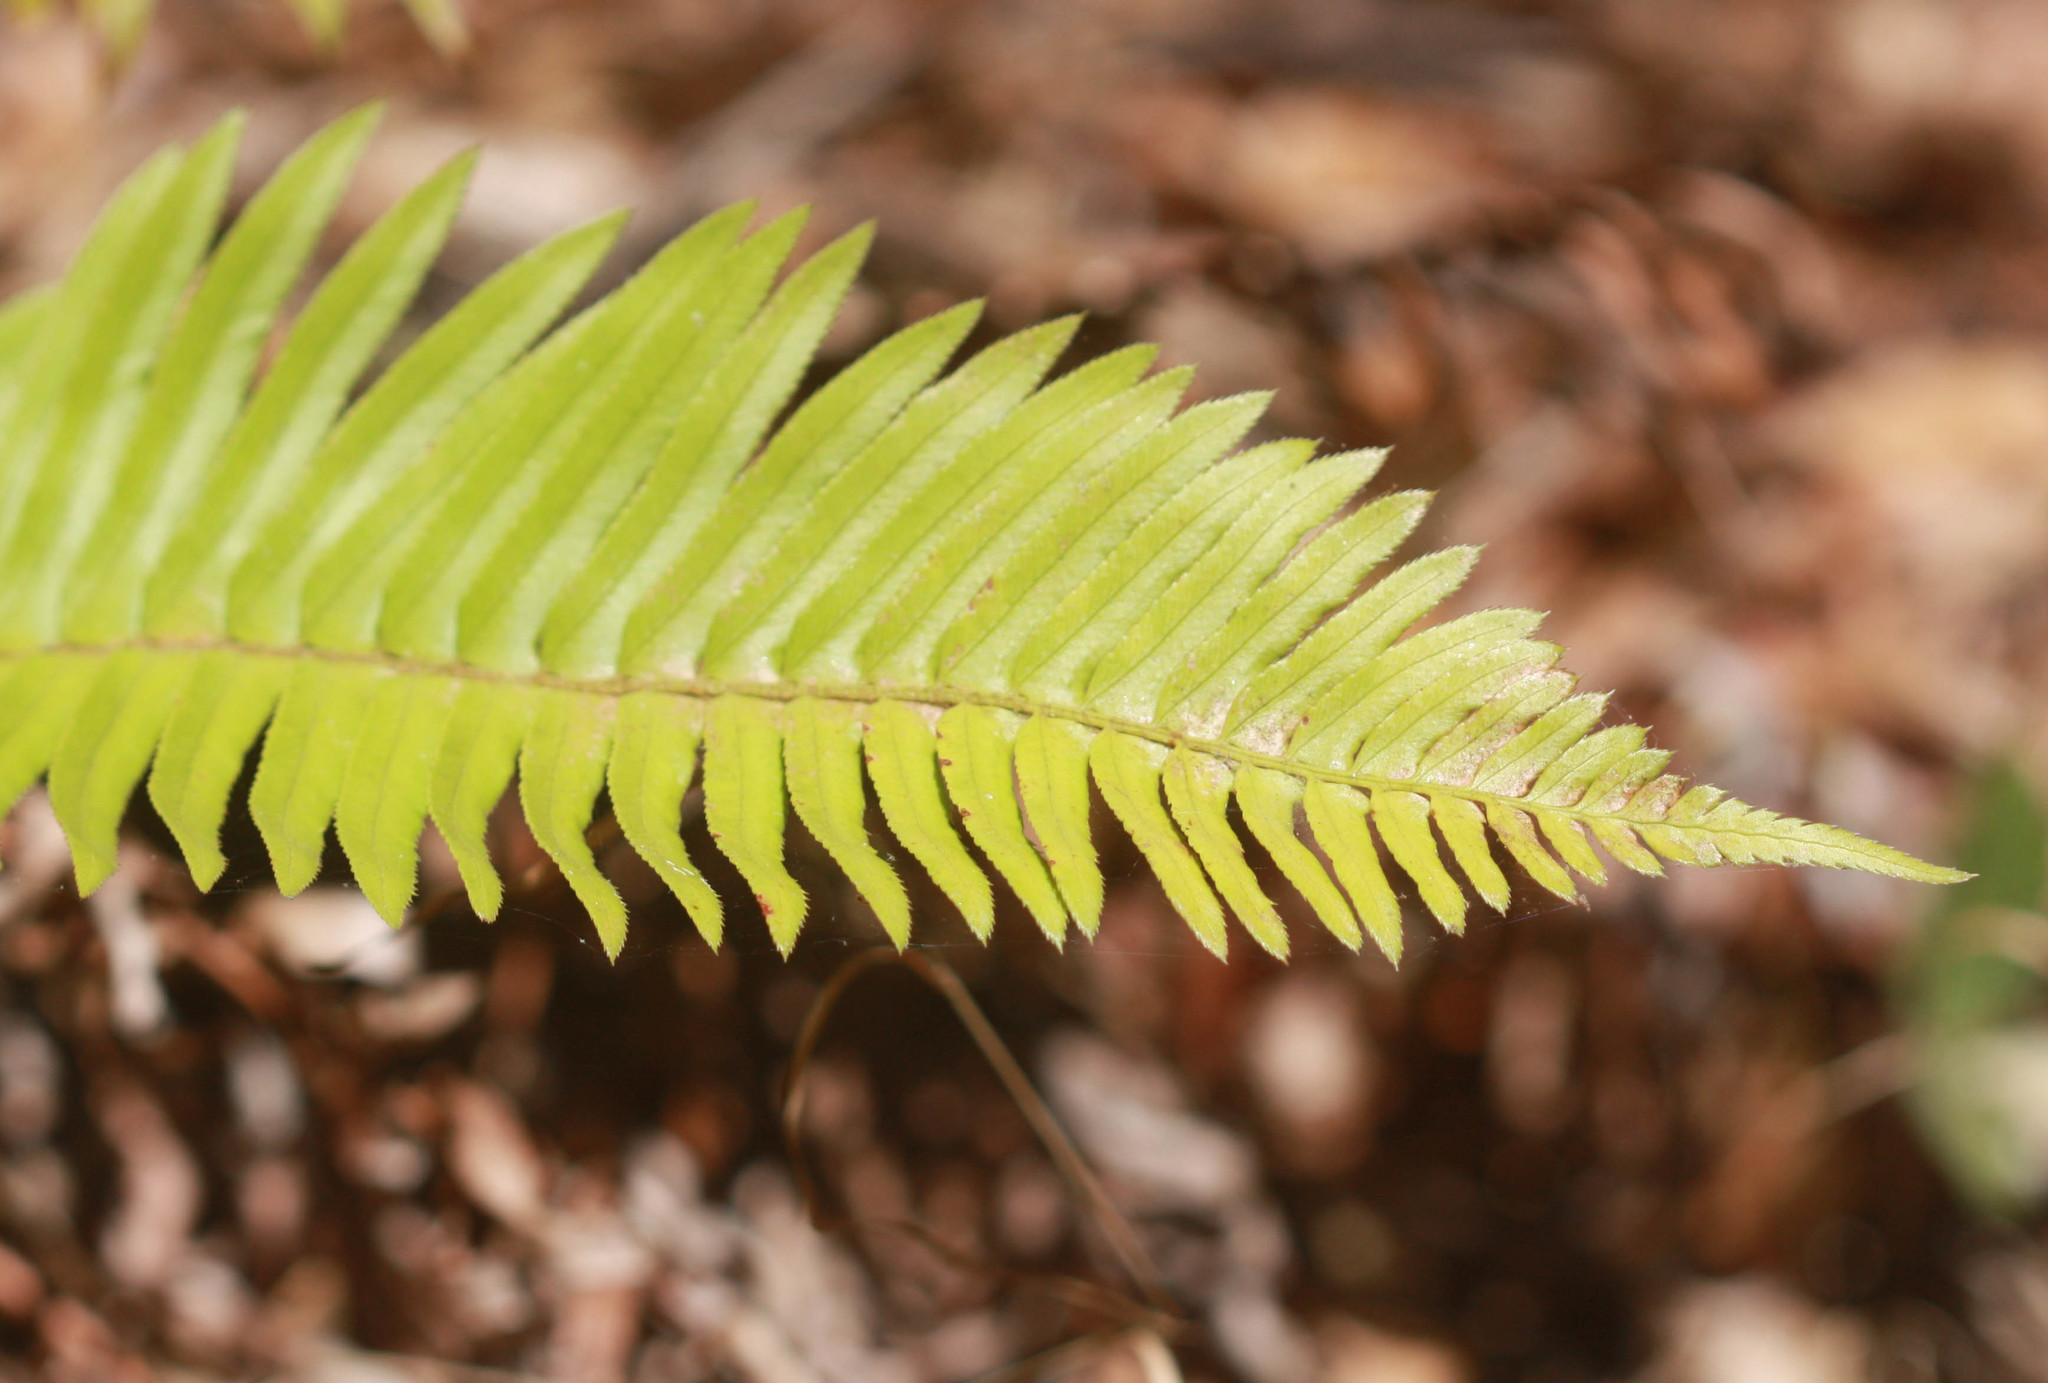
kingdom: Plantae
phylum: Tracheophyta
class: Polypodiopsida
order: Polypodiales
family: Dryopteridaceae
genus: Polystichum
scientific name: Polystichum munitum
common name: Western sword-fern
